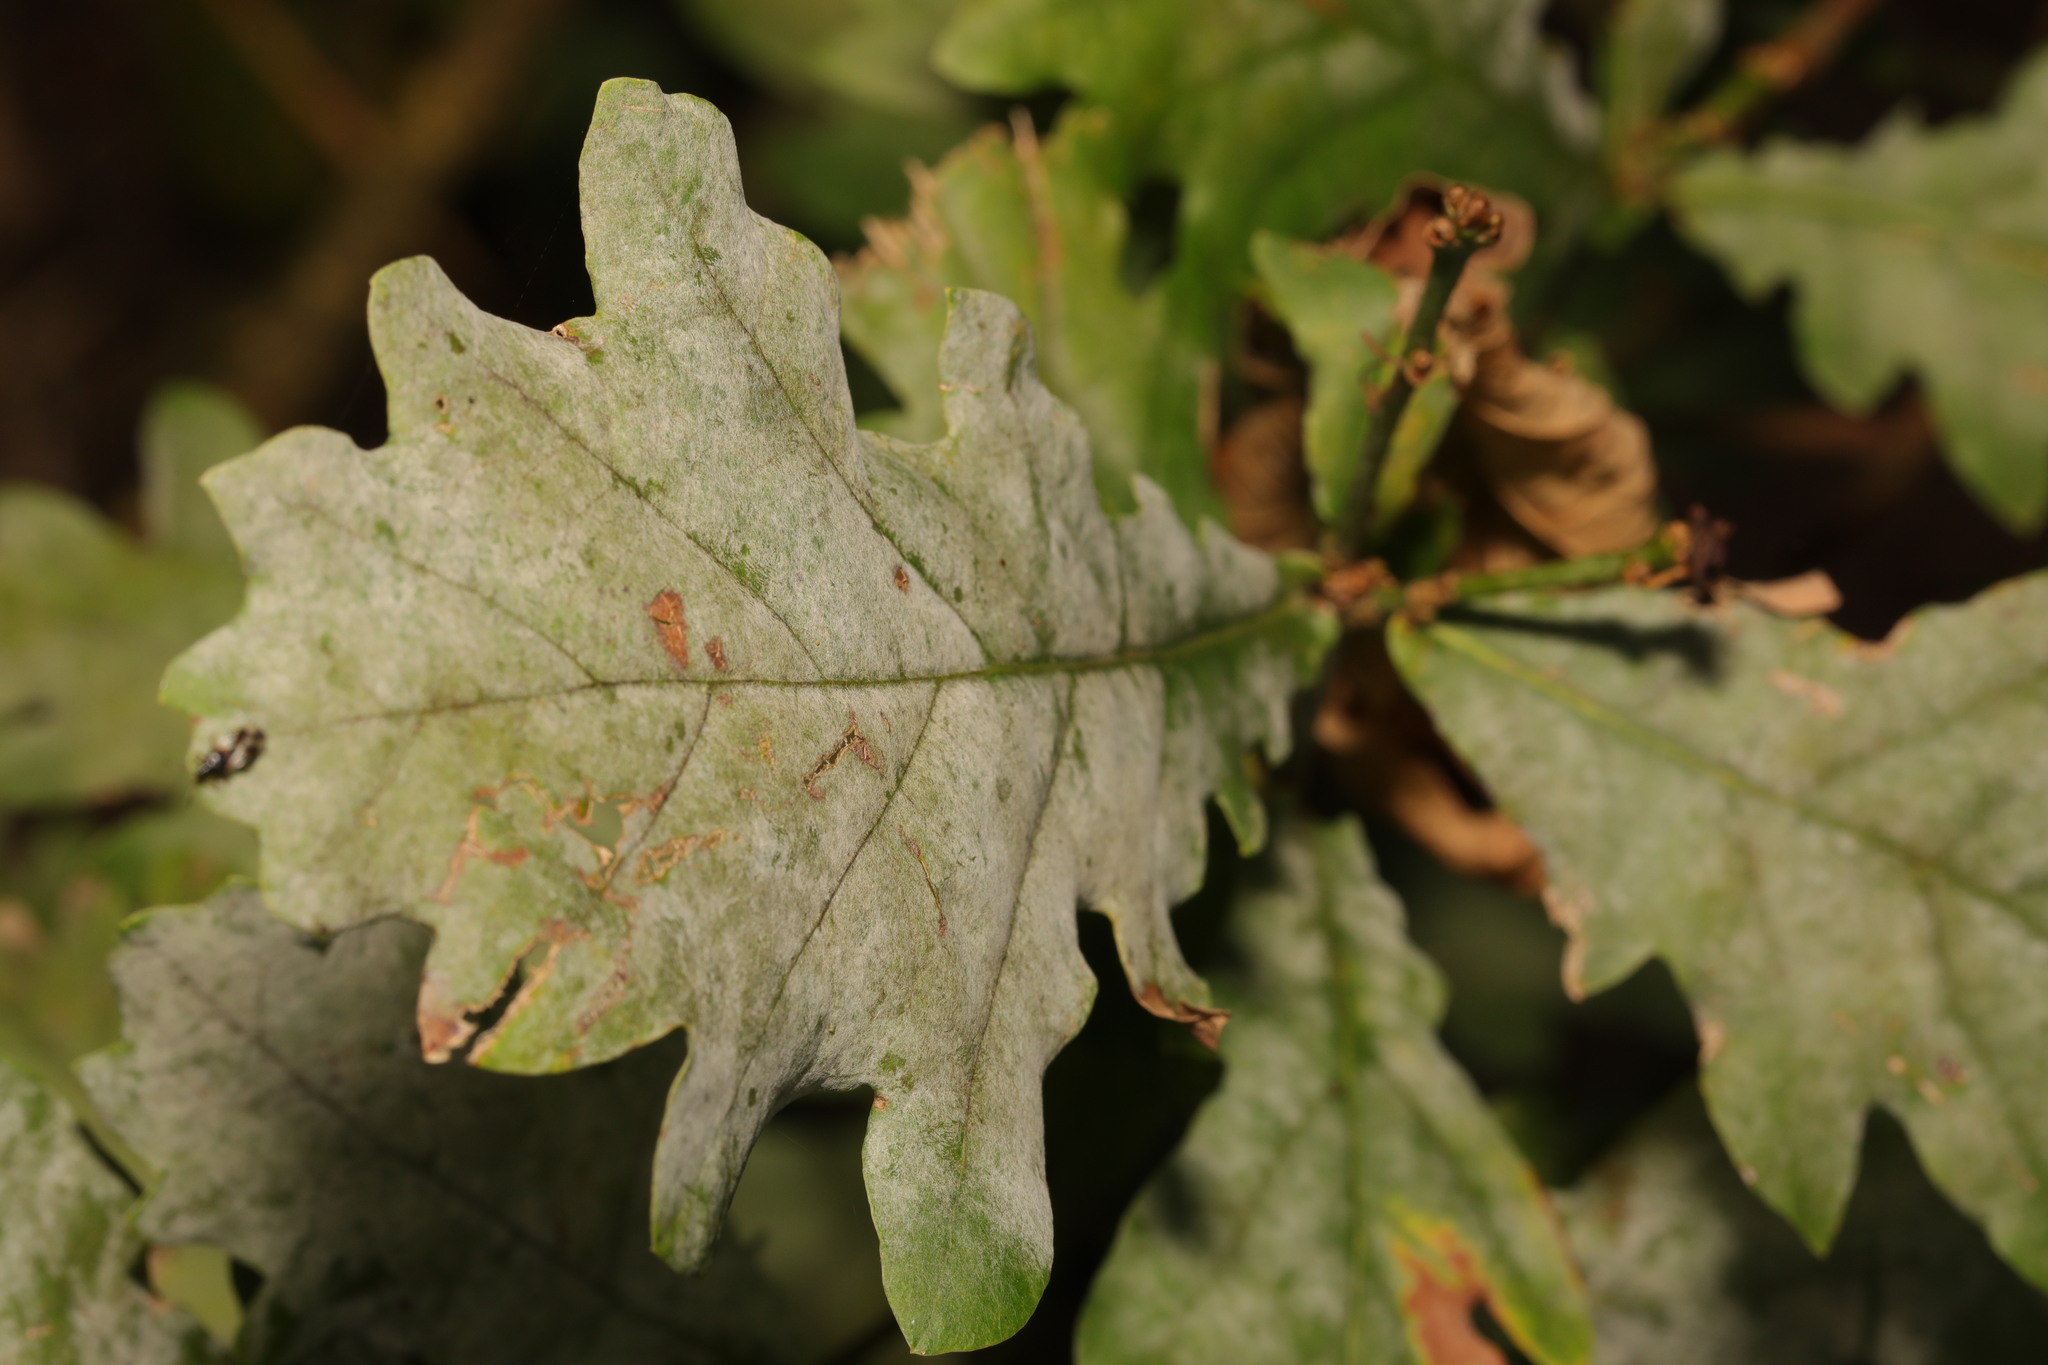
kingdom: Fungi
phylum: Ascomycota
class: Leotiomycetes
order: Helotiales
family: Erysiphaceae
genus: Erysiphe
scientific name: Erysiphe alphitoides
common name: Oak mildew
